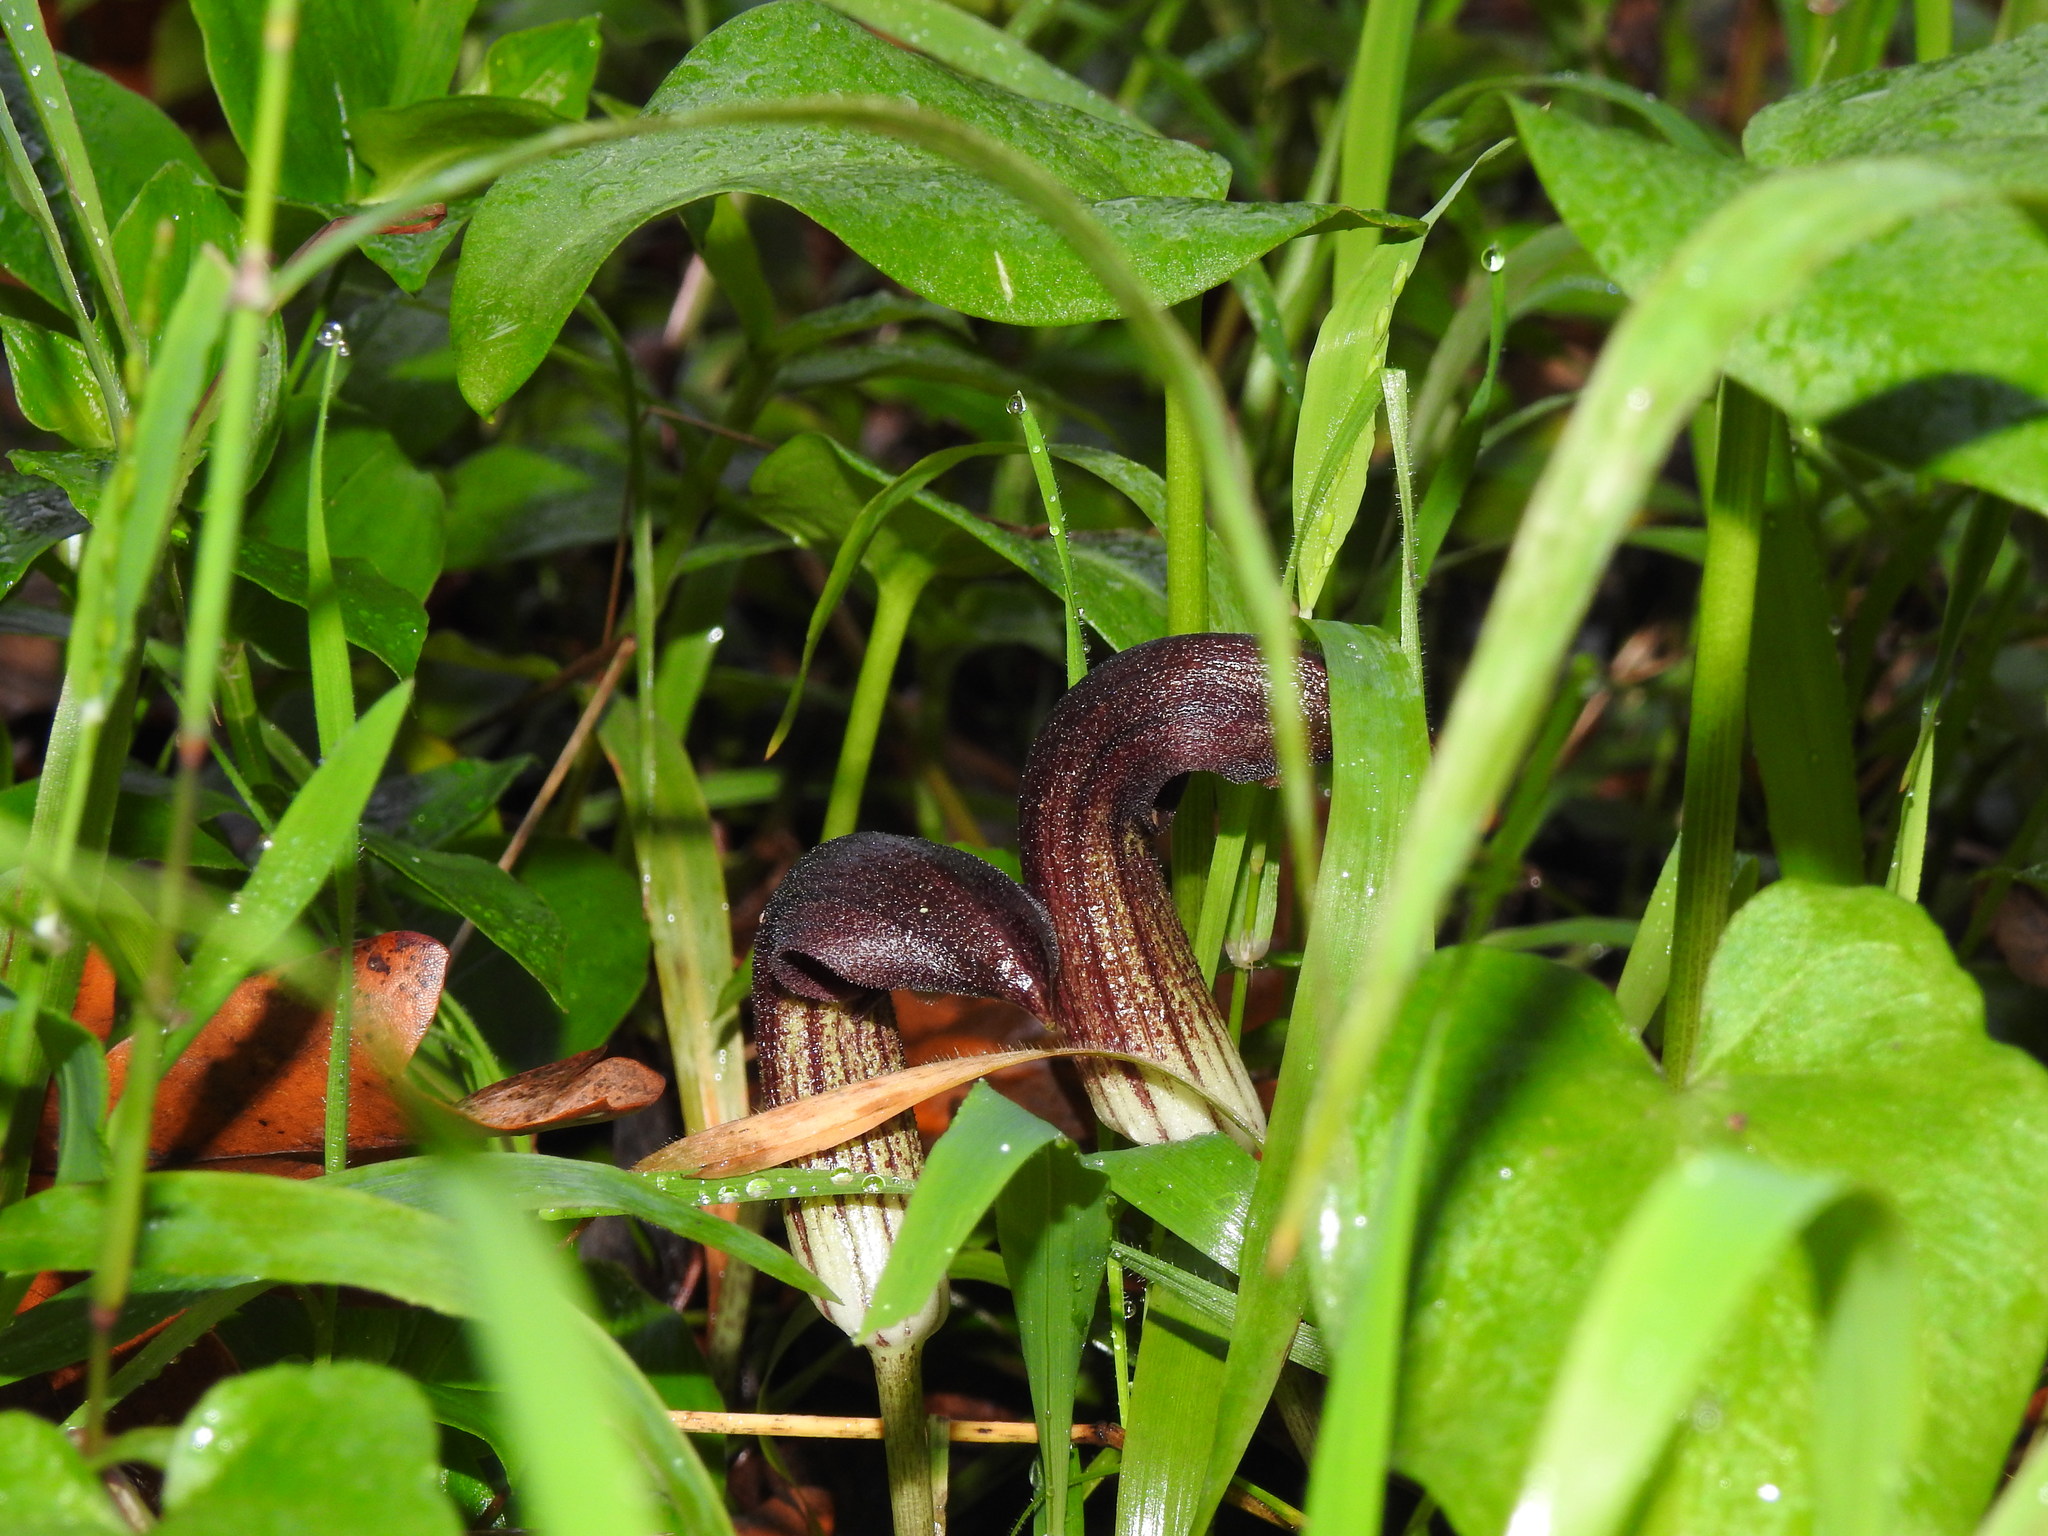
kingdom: Plantae
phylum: Tracheophyta
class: Liliopsida
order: Alismatales
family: Araceae
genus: Arisarum
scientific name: Arisarum simorrhinum
